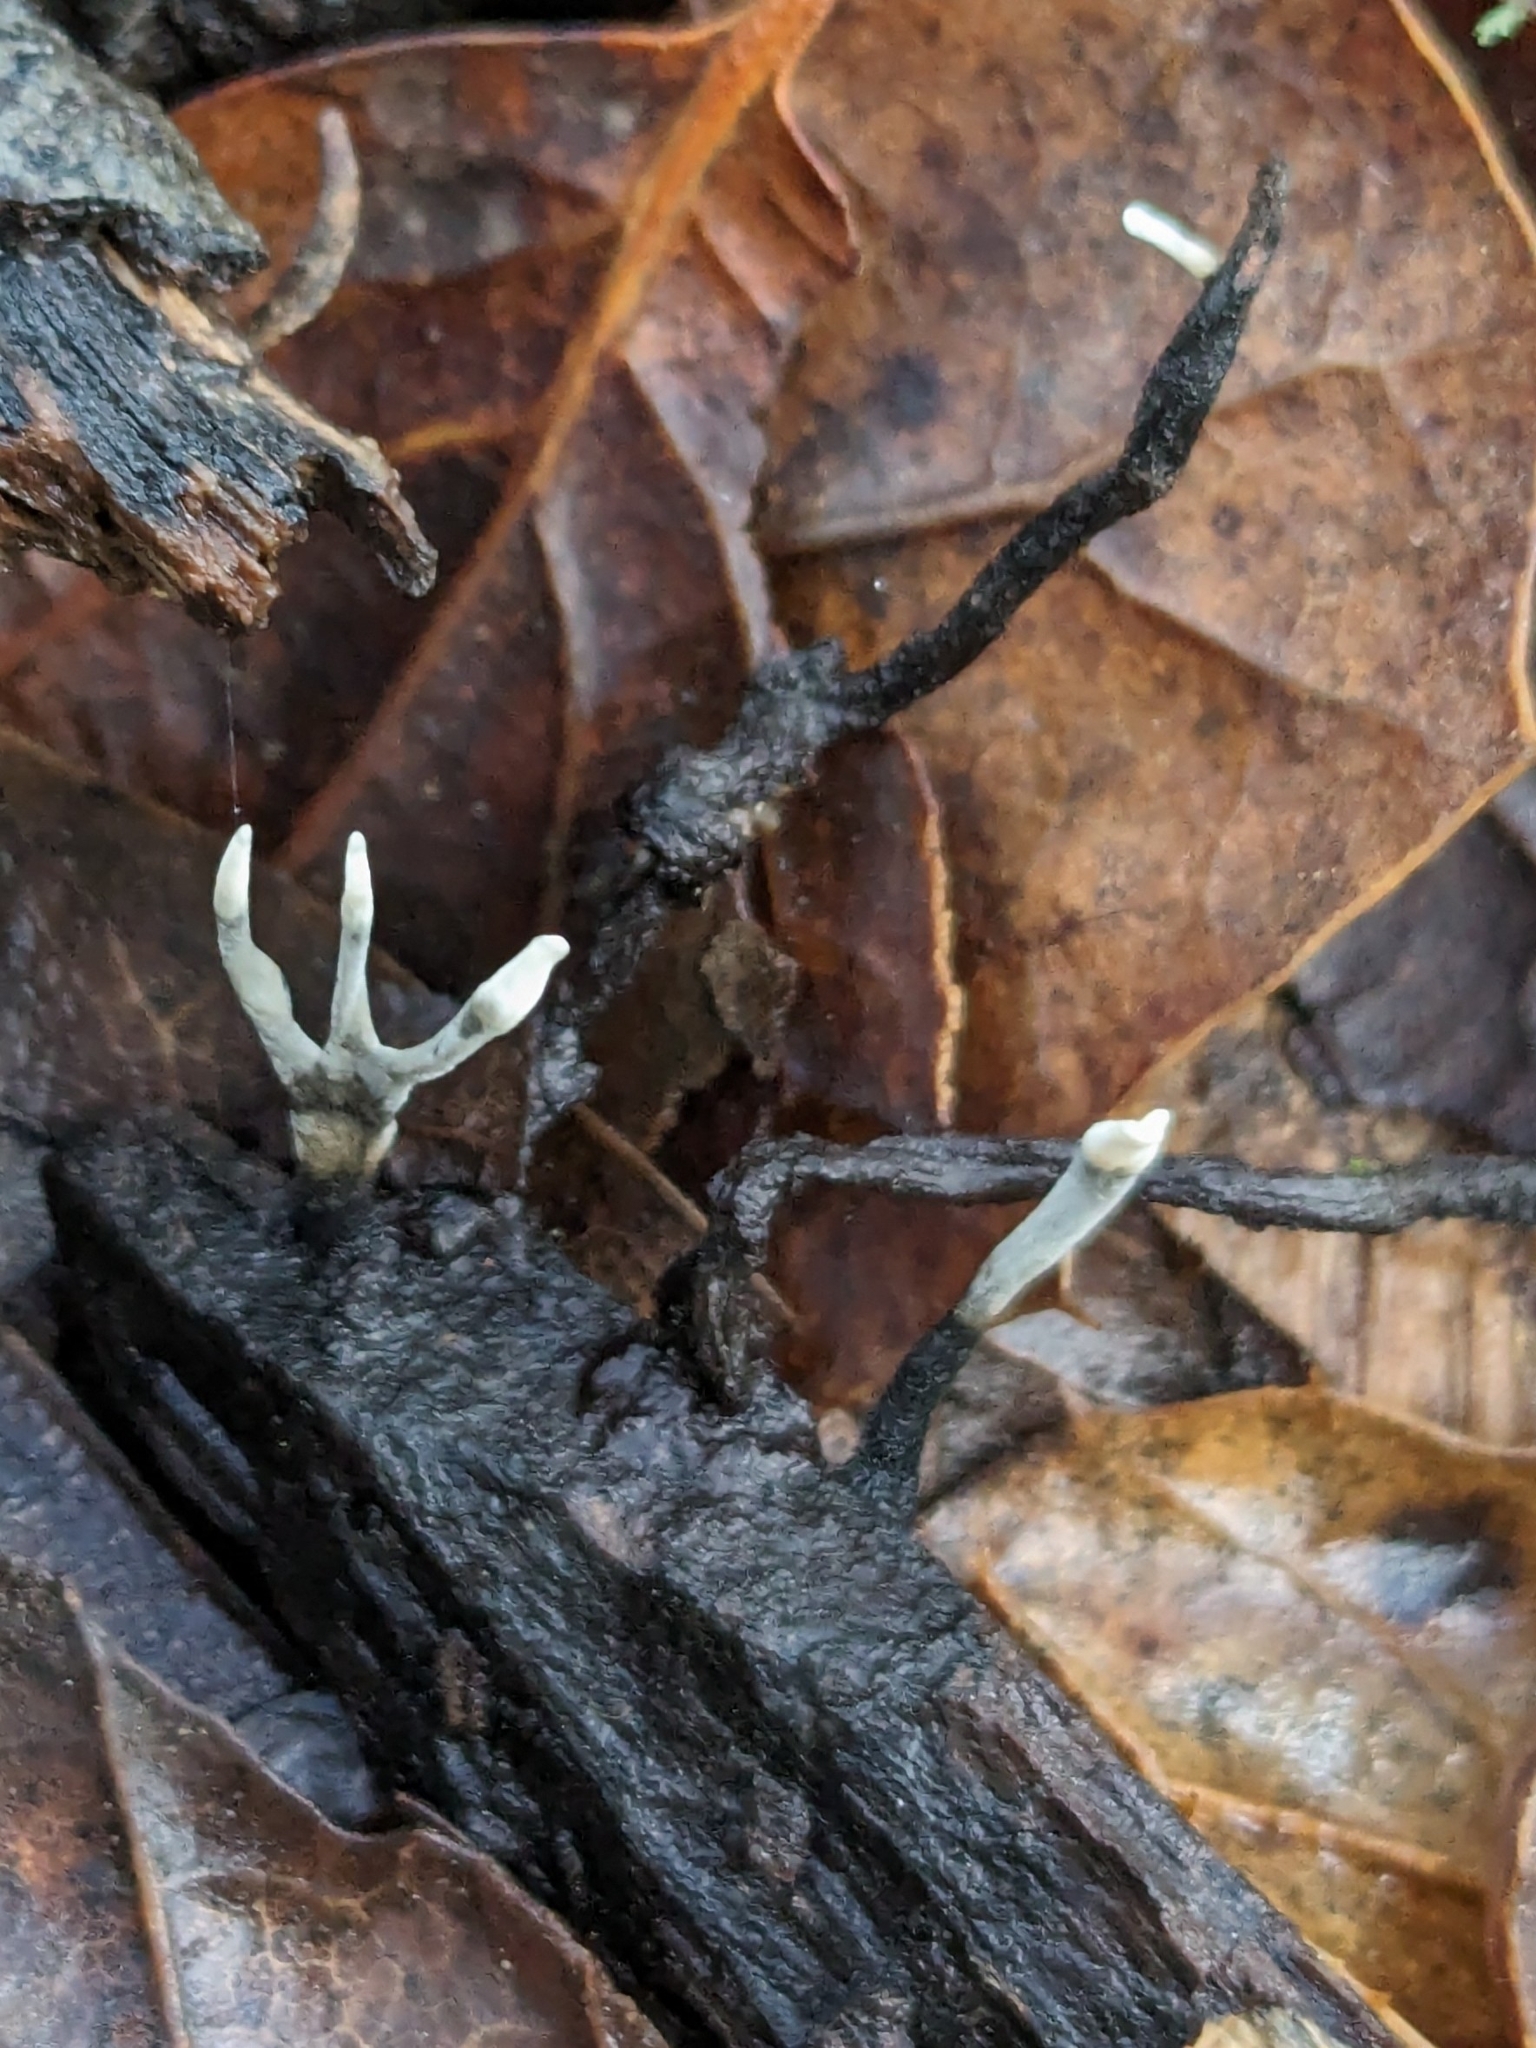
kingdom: Fungi
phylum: Ascomycota
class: Sordariomycetes
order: Xylariales
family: Xylariaceae
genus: Xylaria
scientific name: Xylaria hypoxylon
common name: Candle-snuff fungus
